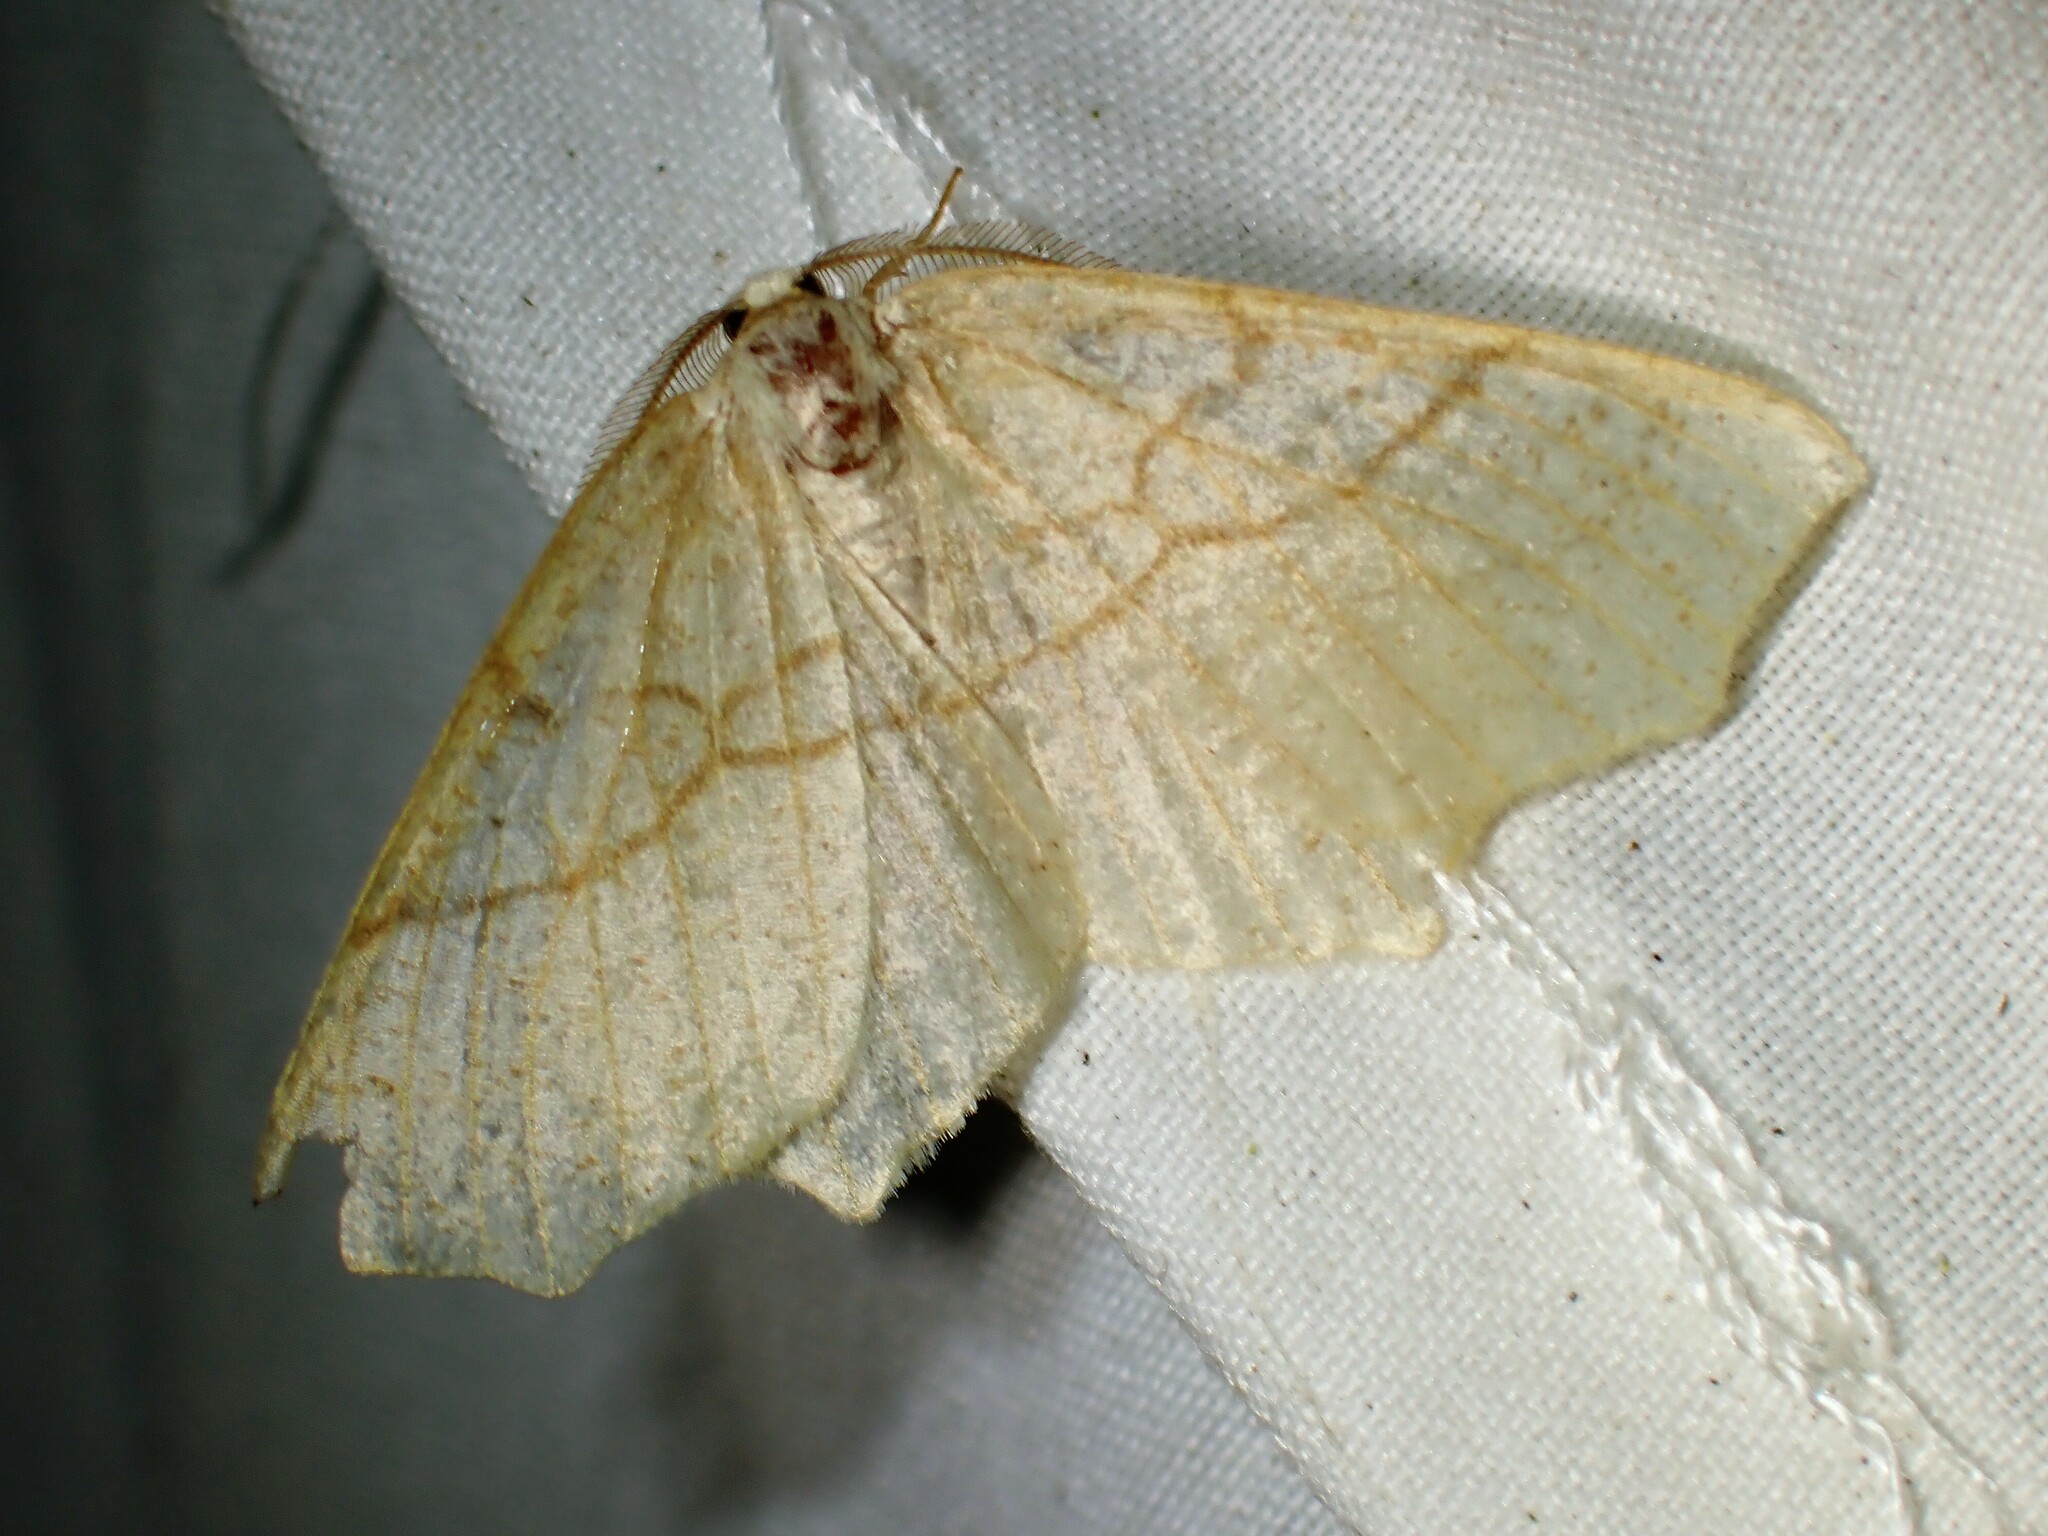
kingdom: Animalia
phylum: Arthropoda
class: Insecta
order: Lepidoptera
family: Geometridae
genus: Besma
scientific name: Besma quercivoraria
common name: Oak besma
